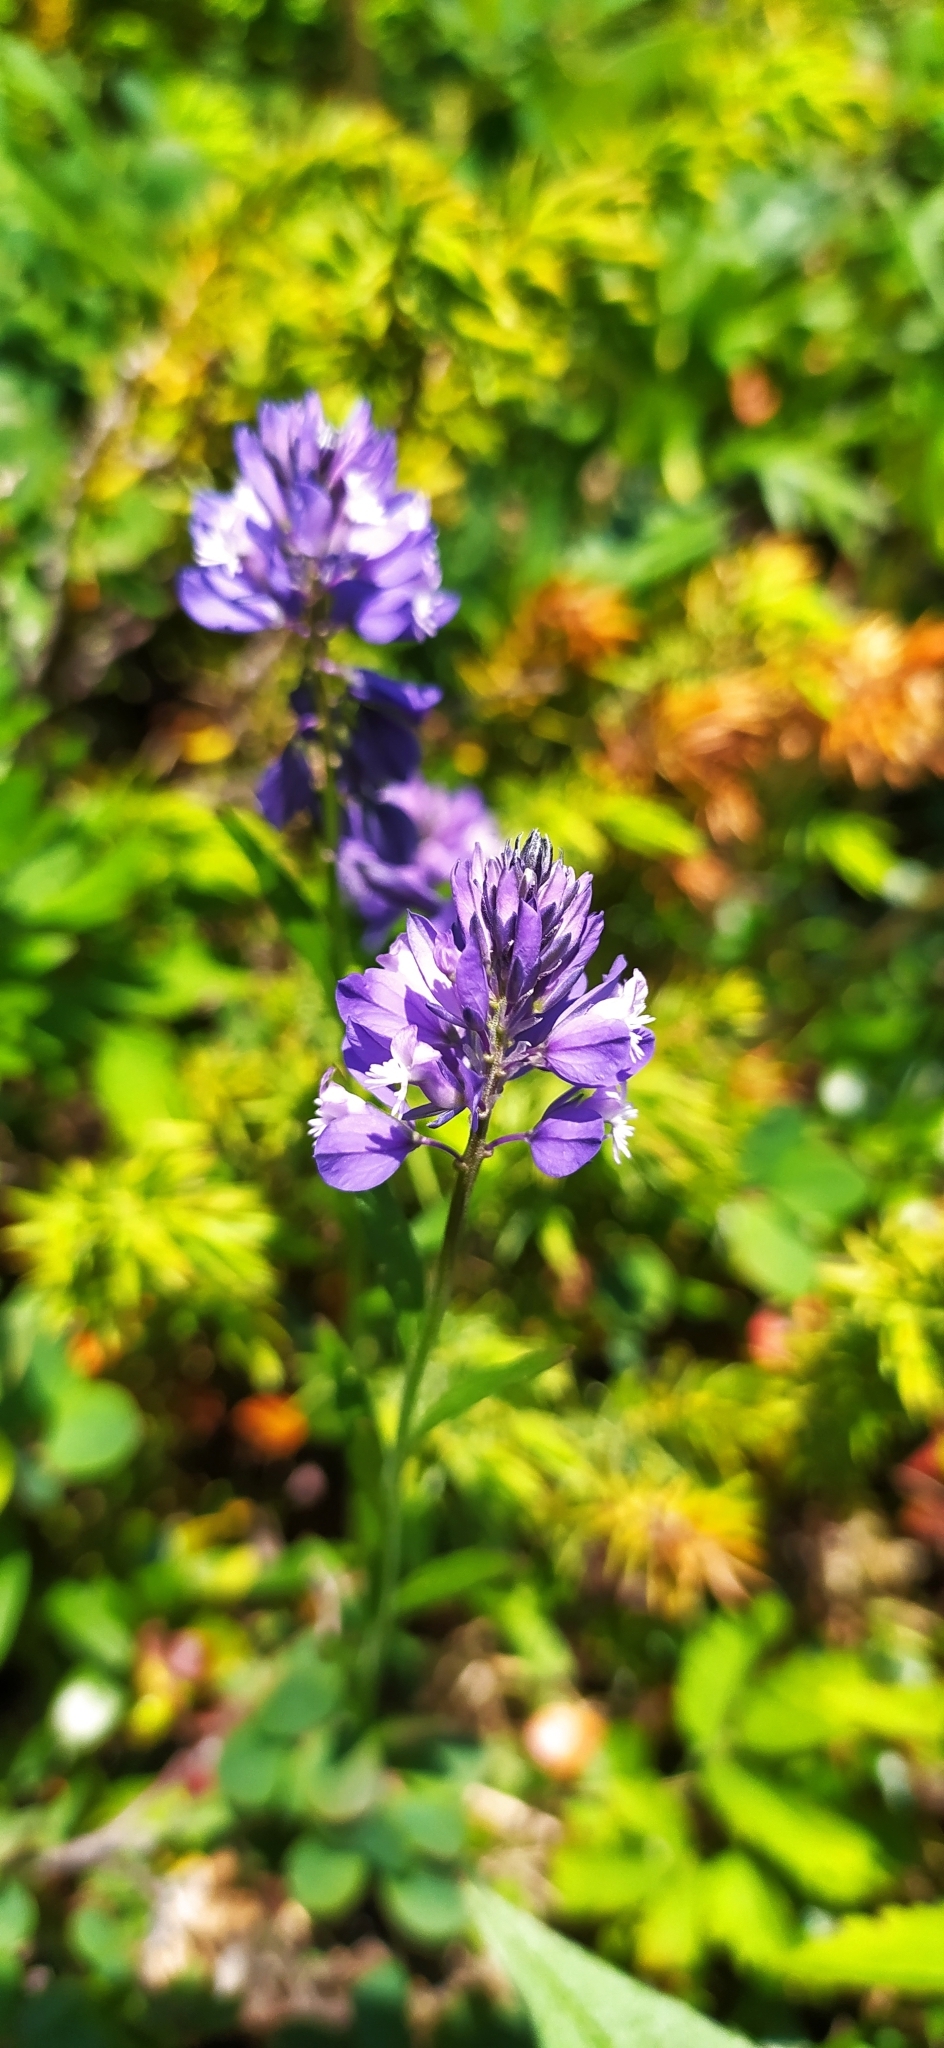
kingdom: Plantae
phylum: Tracheophyta
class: Magnoliopsida
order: Fabales
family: Polygalaceae
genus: Polygala
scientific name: Polygala comosa
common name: Tufted milkwort
